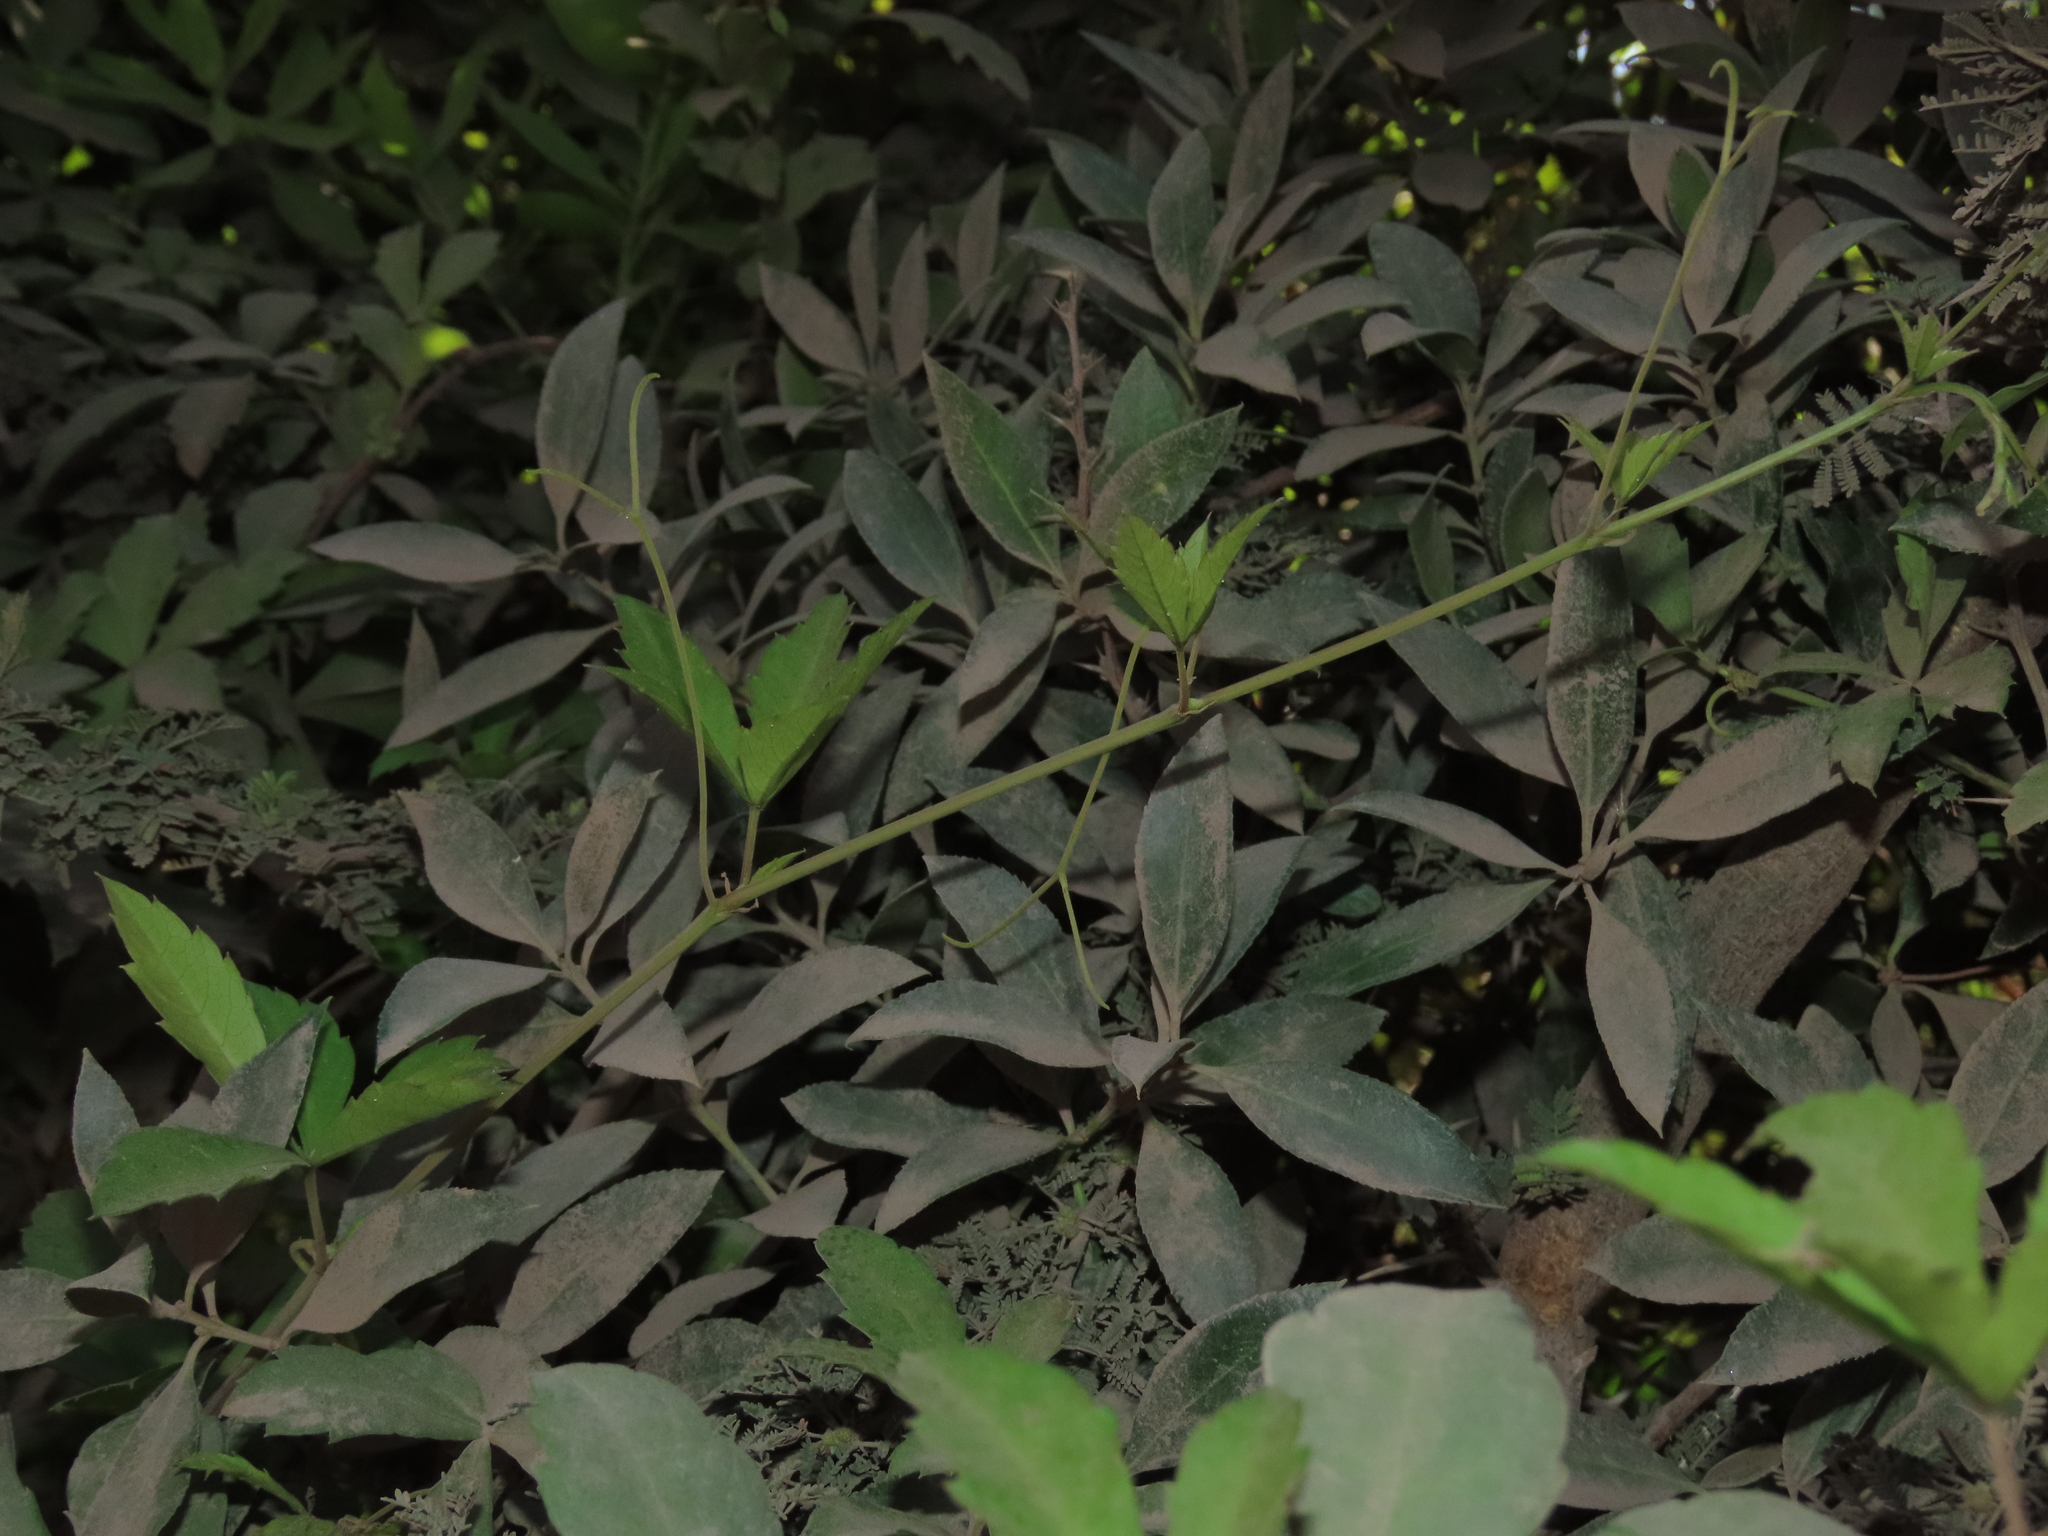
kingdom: Plantae
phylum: Tracheophyta
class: Magnoliopsida
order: Vitales
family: Vitaceae
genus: Clematicissus
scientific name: Clematicissus striata
